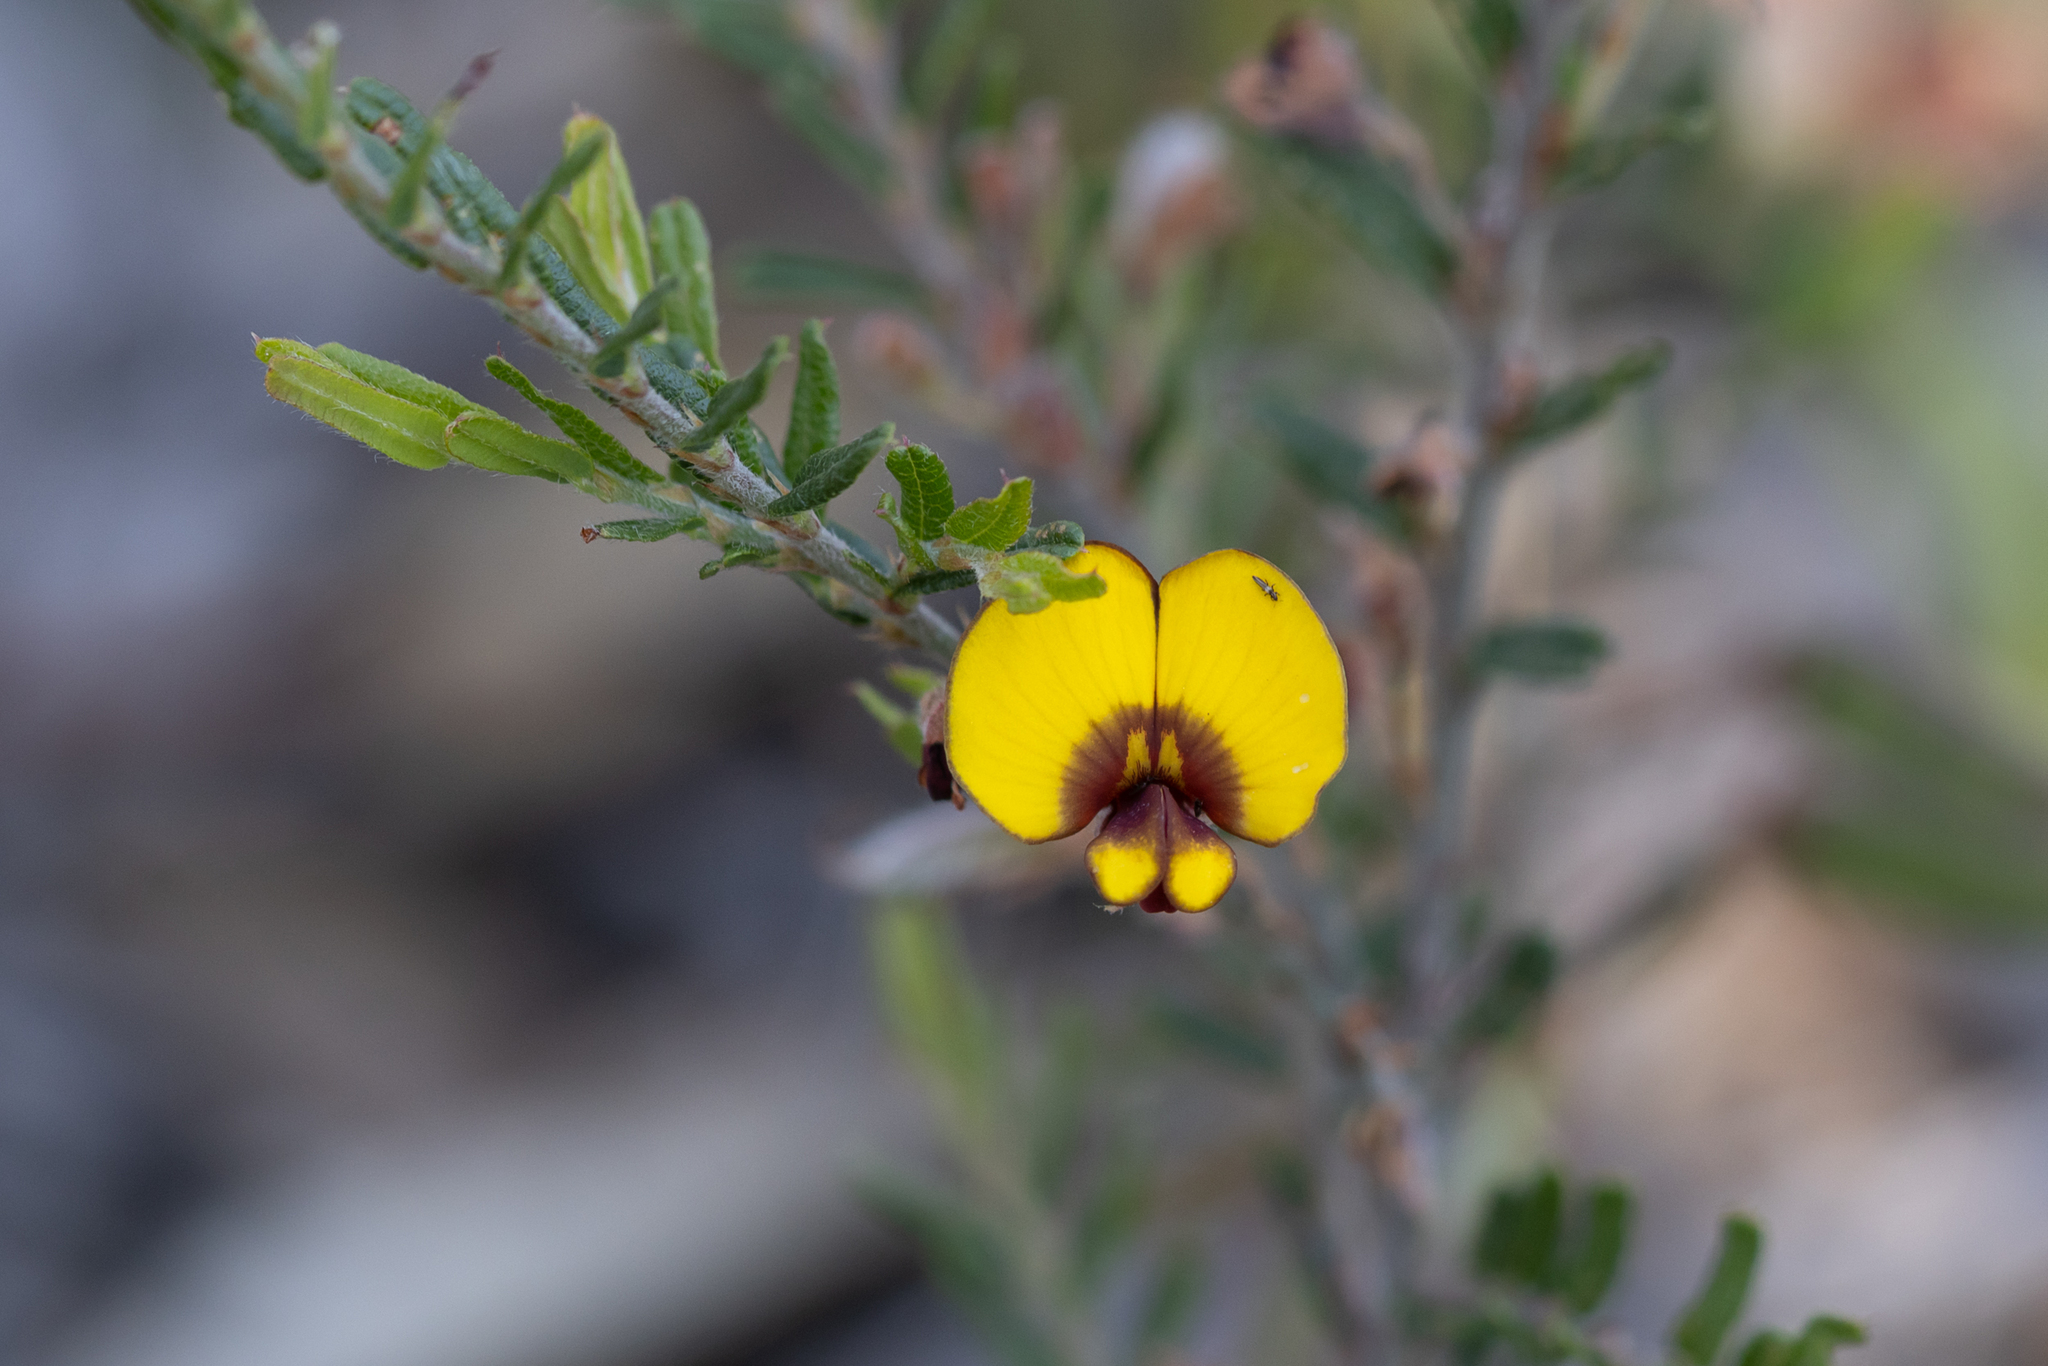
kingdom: Plantae
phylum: Tracheophyta
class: Magnoliopsida
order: Fabales
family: Fabaceae
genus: Bossiaea
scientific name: Bossiaea eriocarpa
